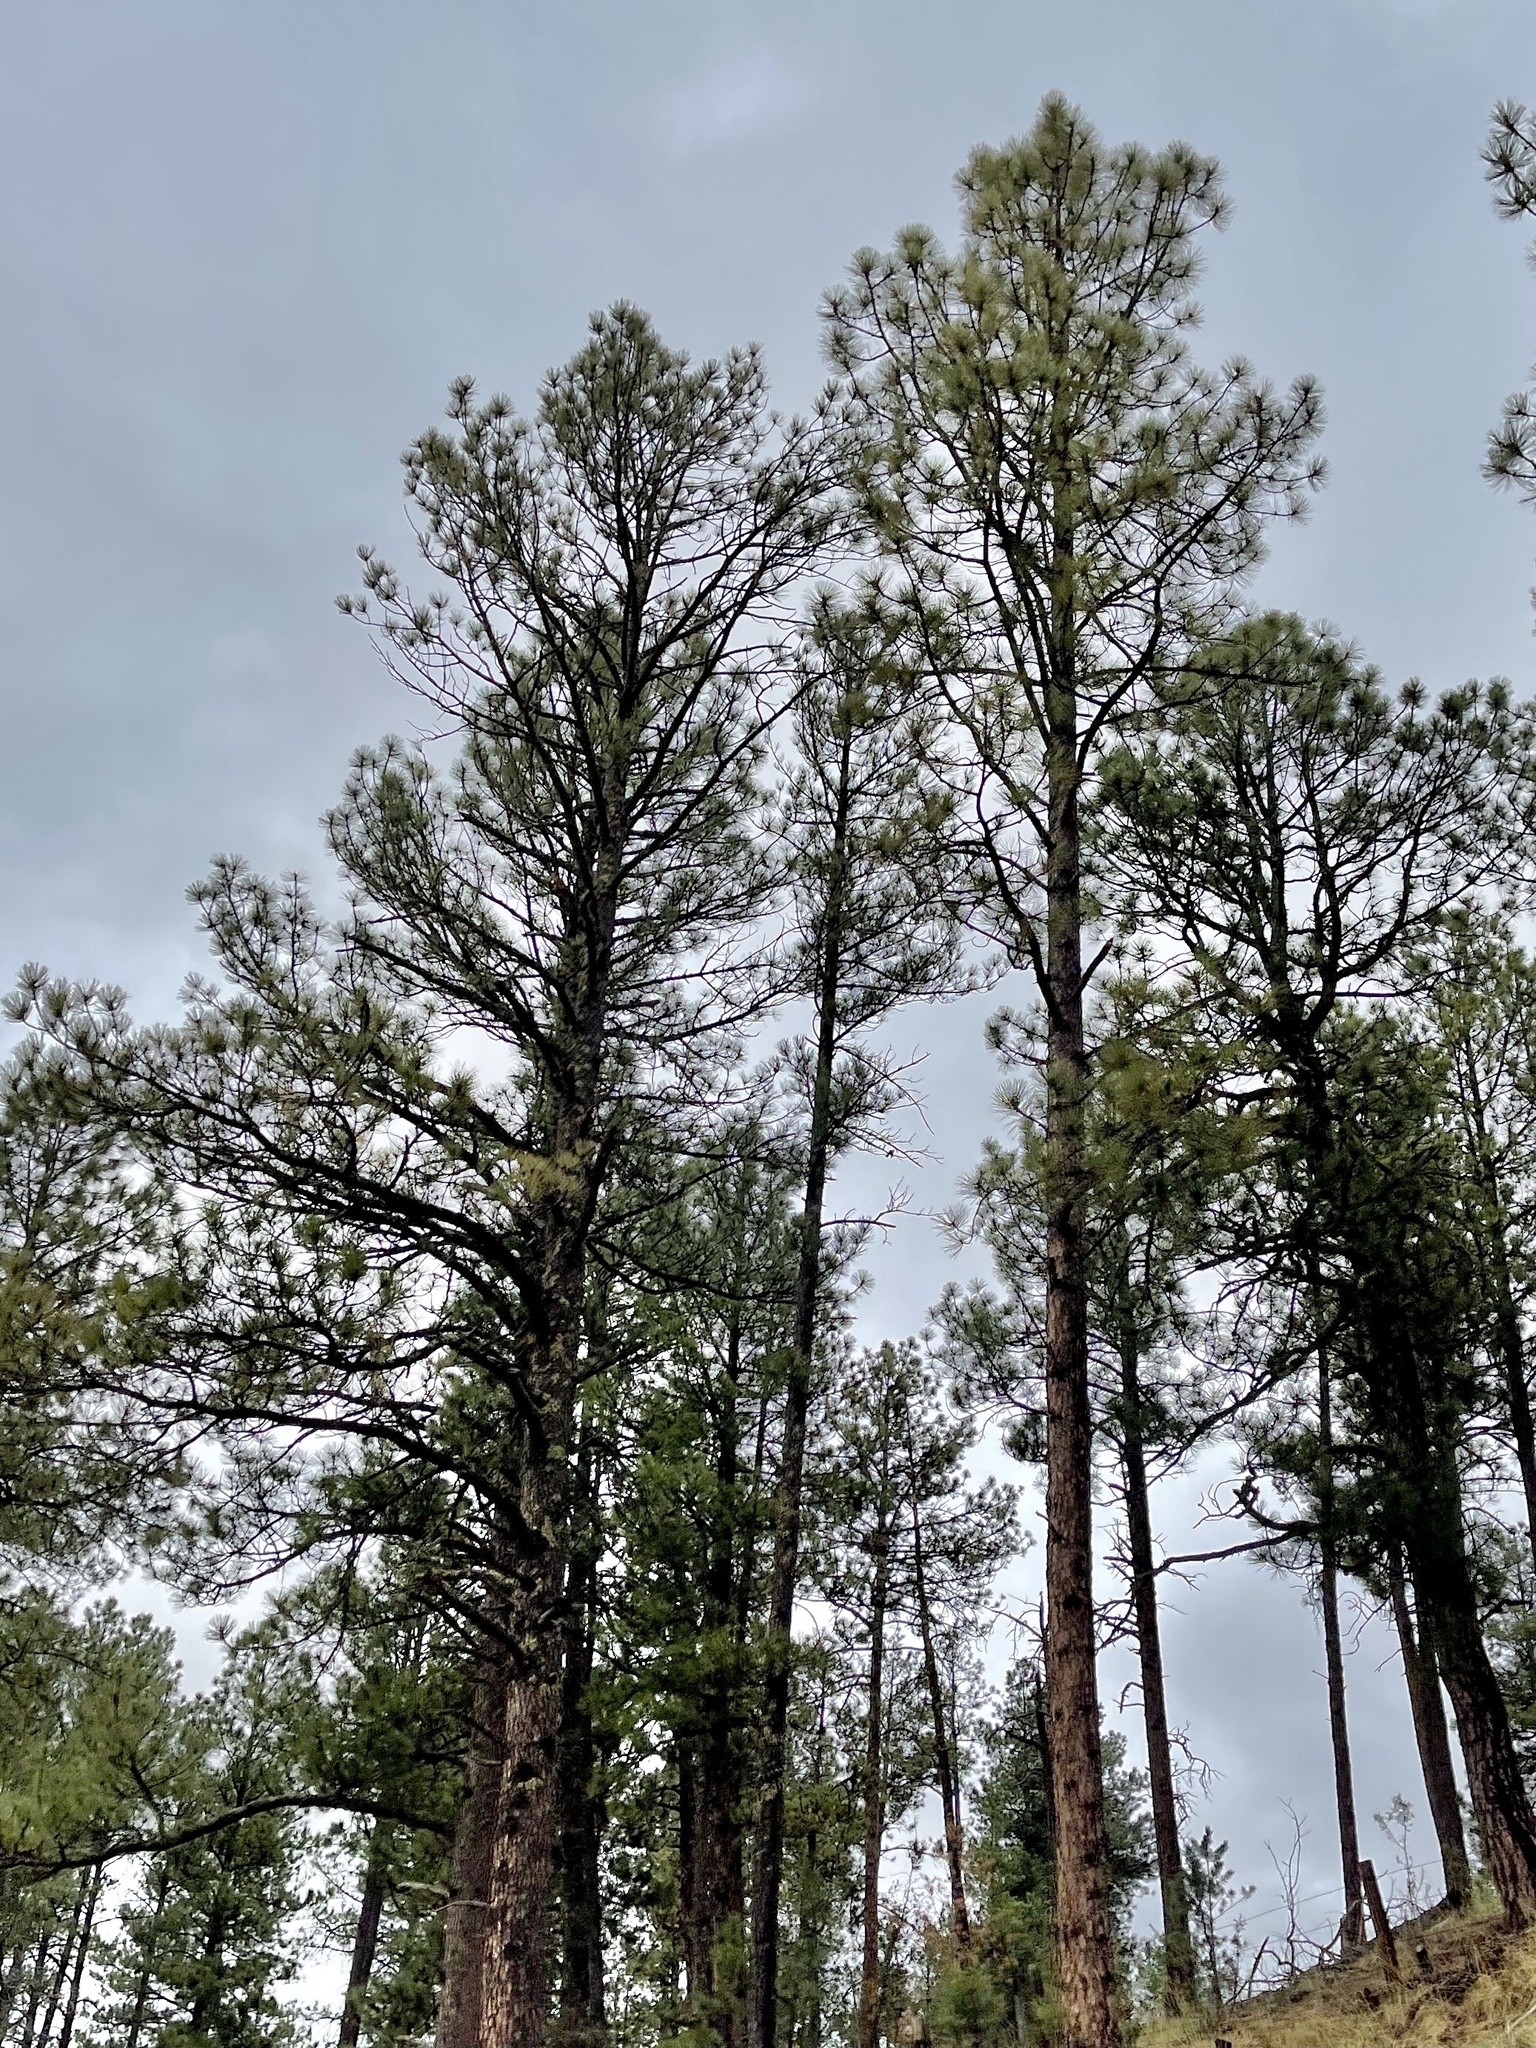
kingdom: Plantae
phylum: Tracheophyta
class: Pinopsida
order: Pinales
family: Pinaceae
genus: Pinus
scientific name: Pinus ponderosa
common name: Western yellow-pine
